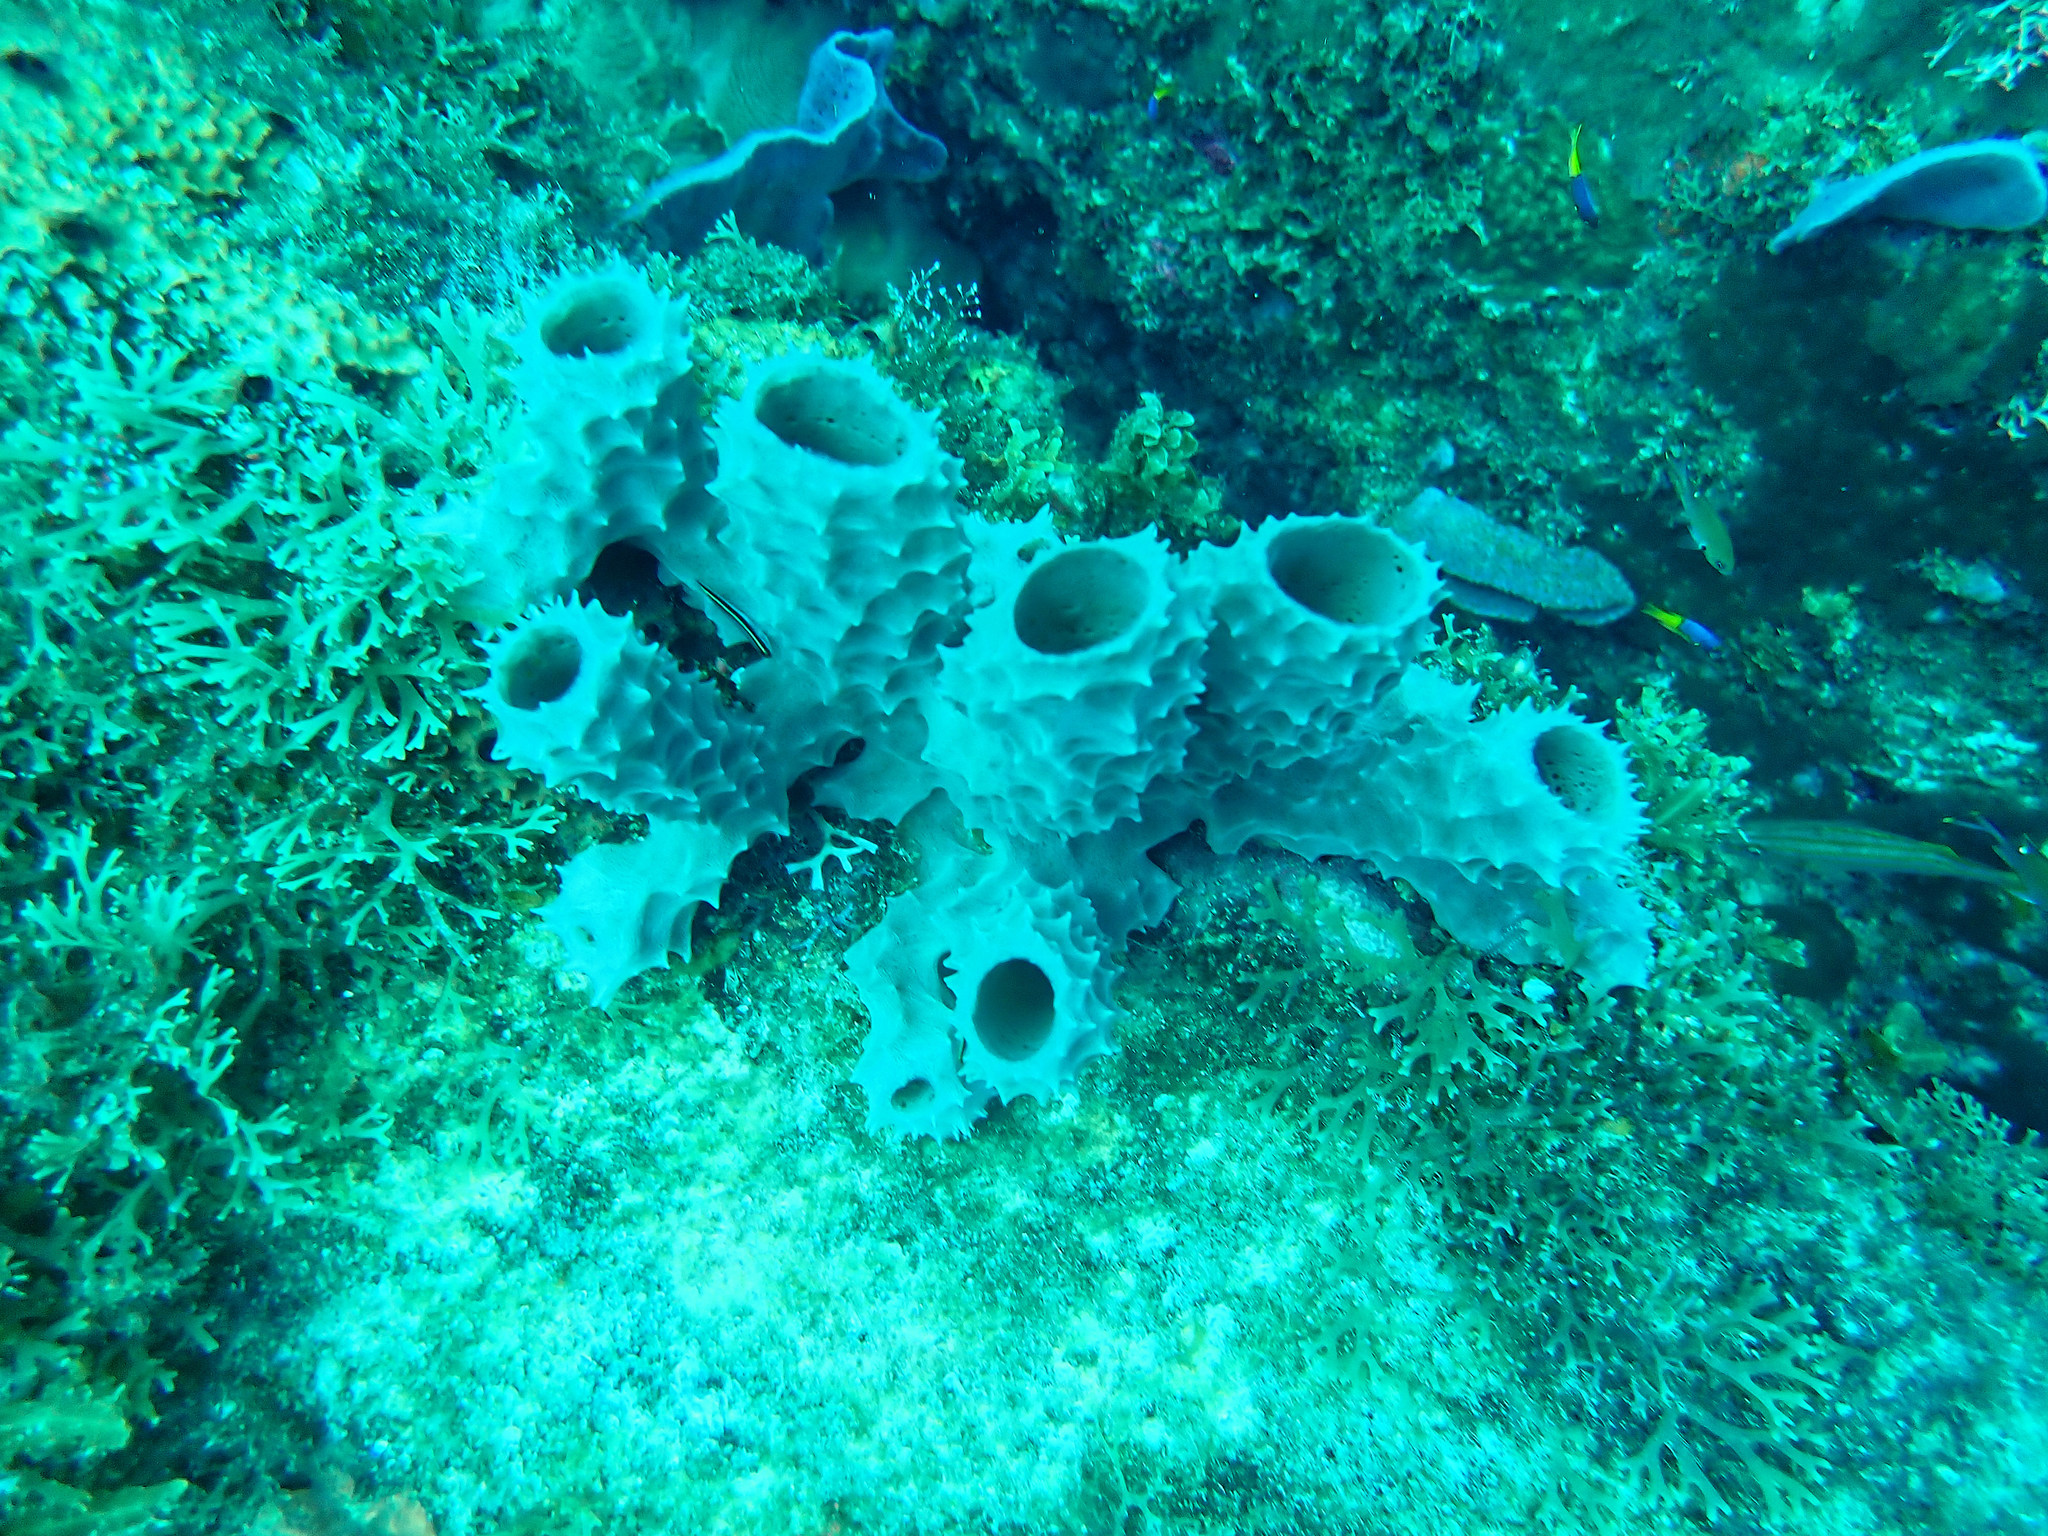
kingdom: Animalia
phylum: Porifera
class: Demospongiae
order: Haplosclerida
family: Callyspongiidae
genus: Callyspongia
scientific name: Callyspongia aculeata
